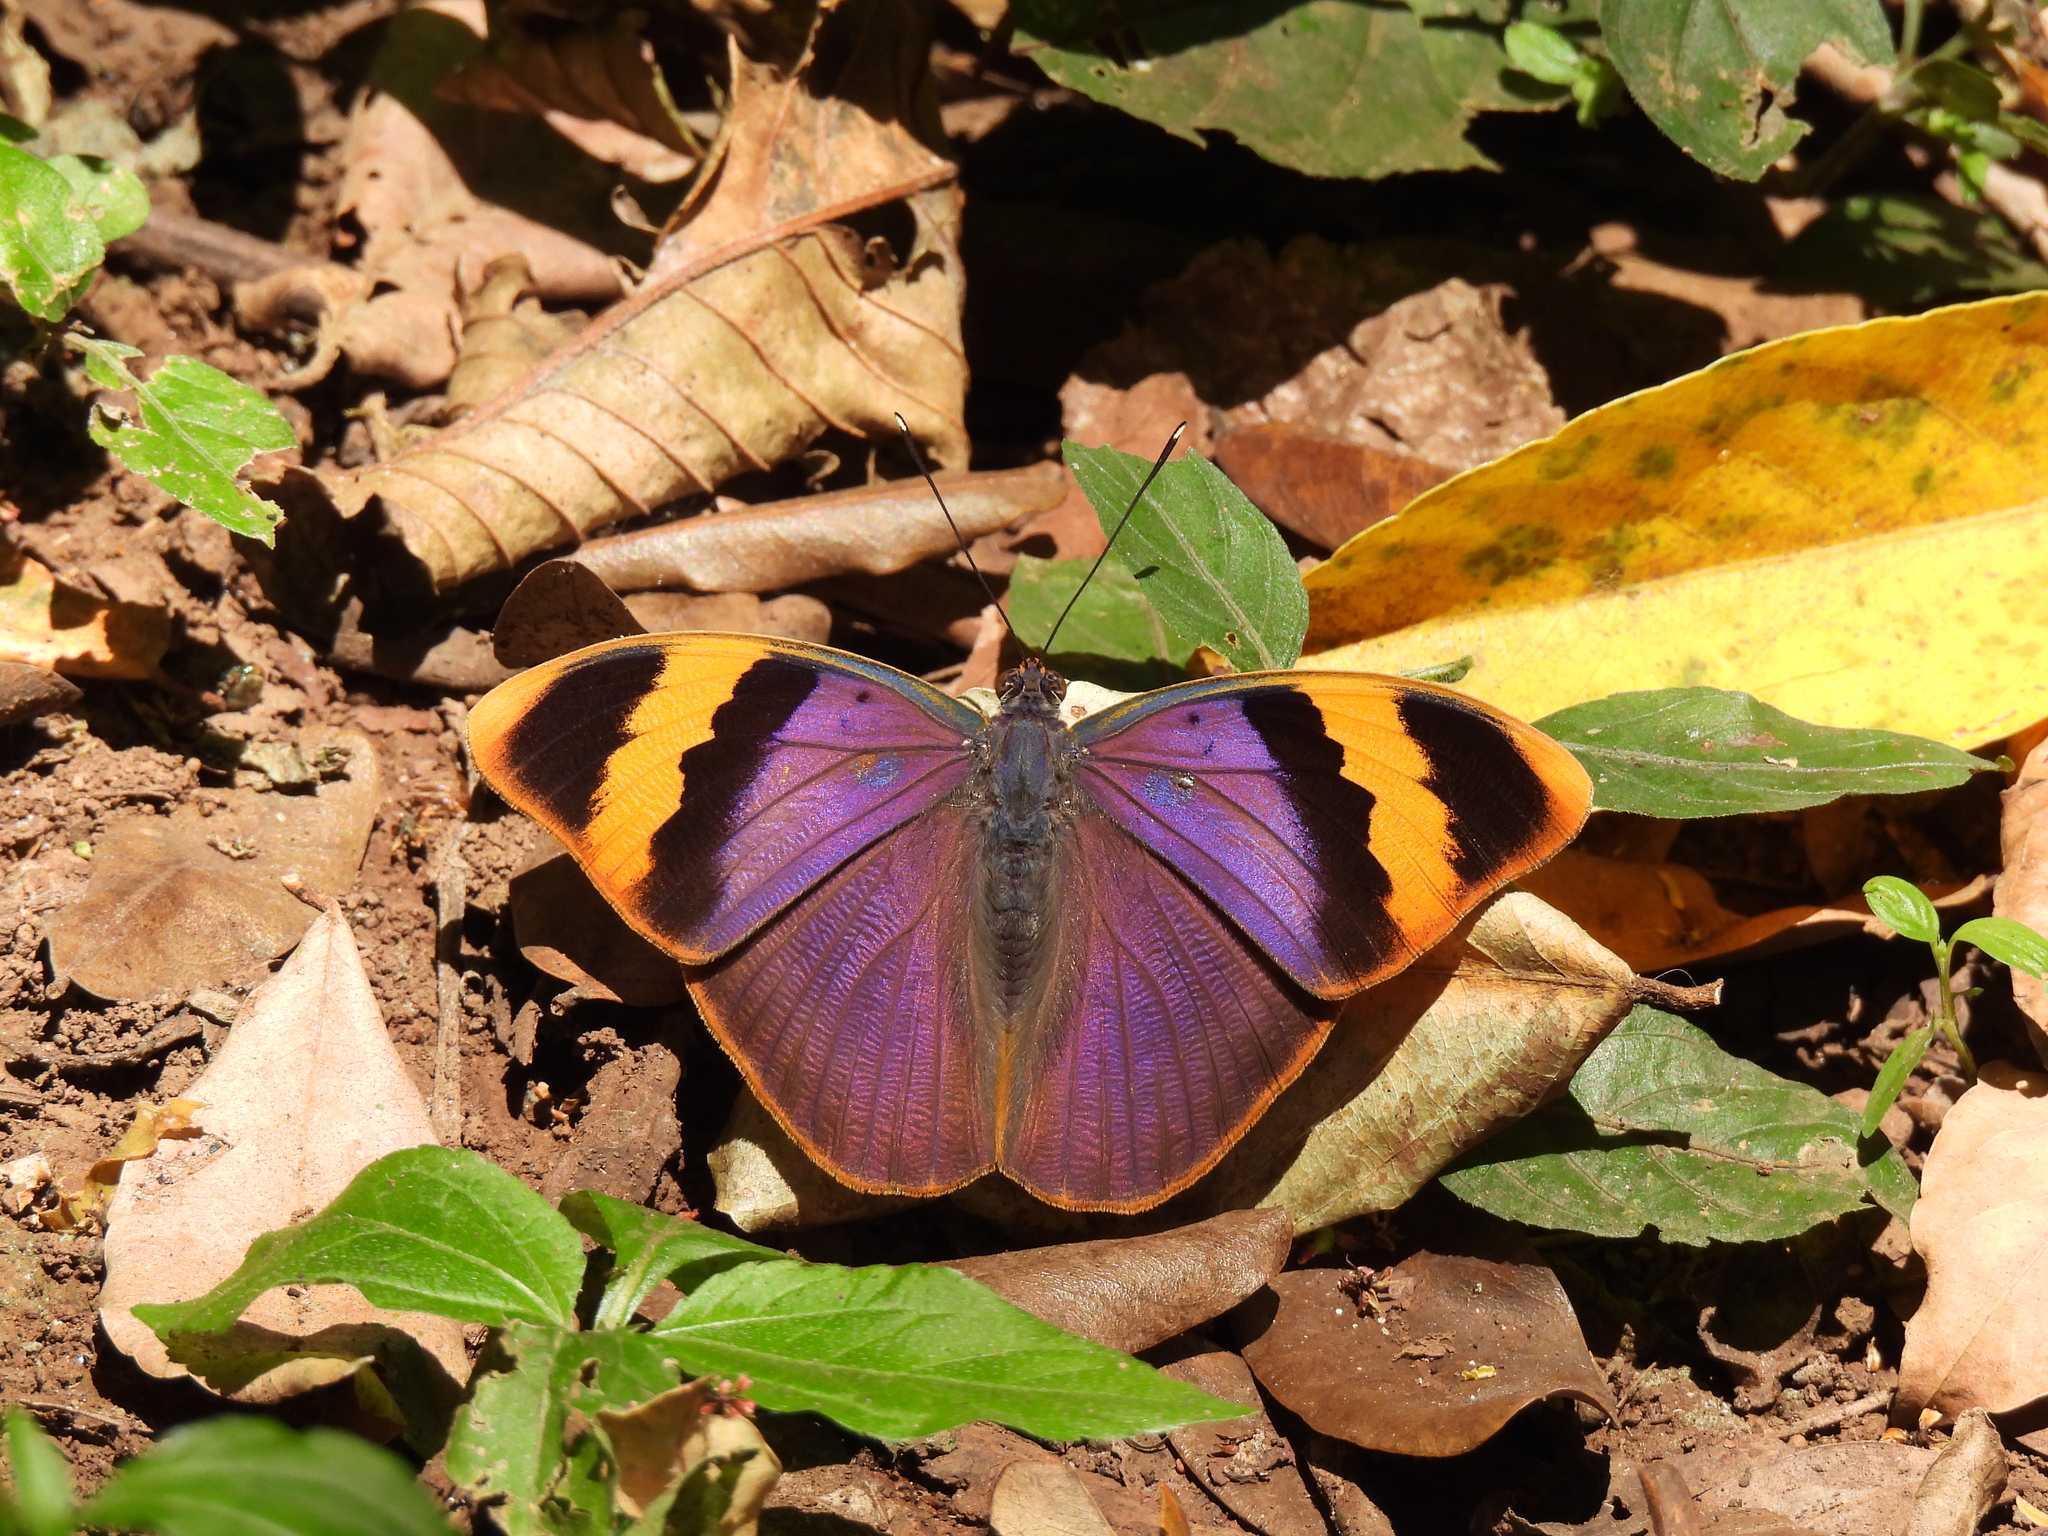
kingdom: Animalia
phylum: Arthropoda
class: Insecta
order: Lepidoptera
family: Nymphalidae
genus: Euphaedra
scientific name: Euphaedra neophron
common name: Gold-banded forester
